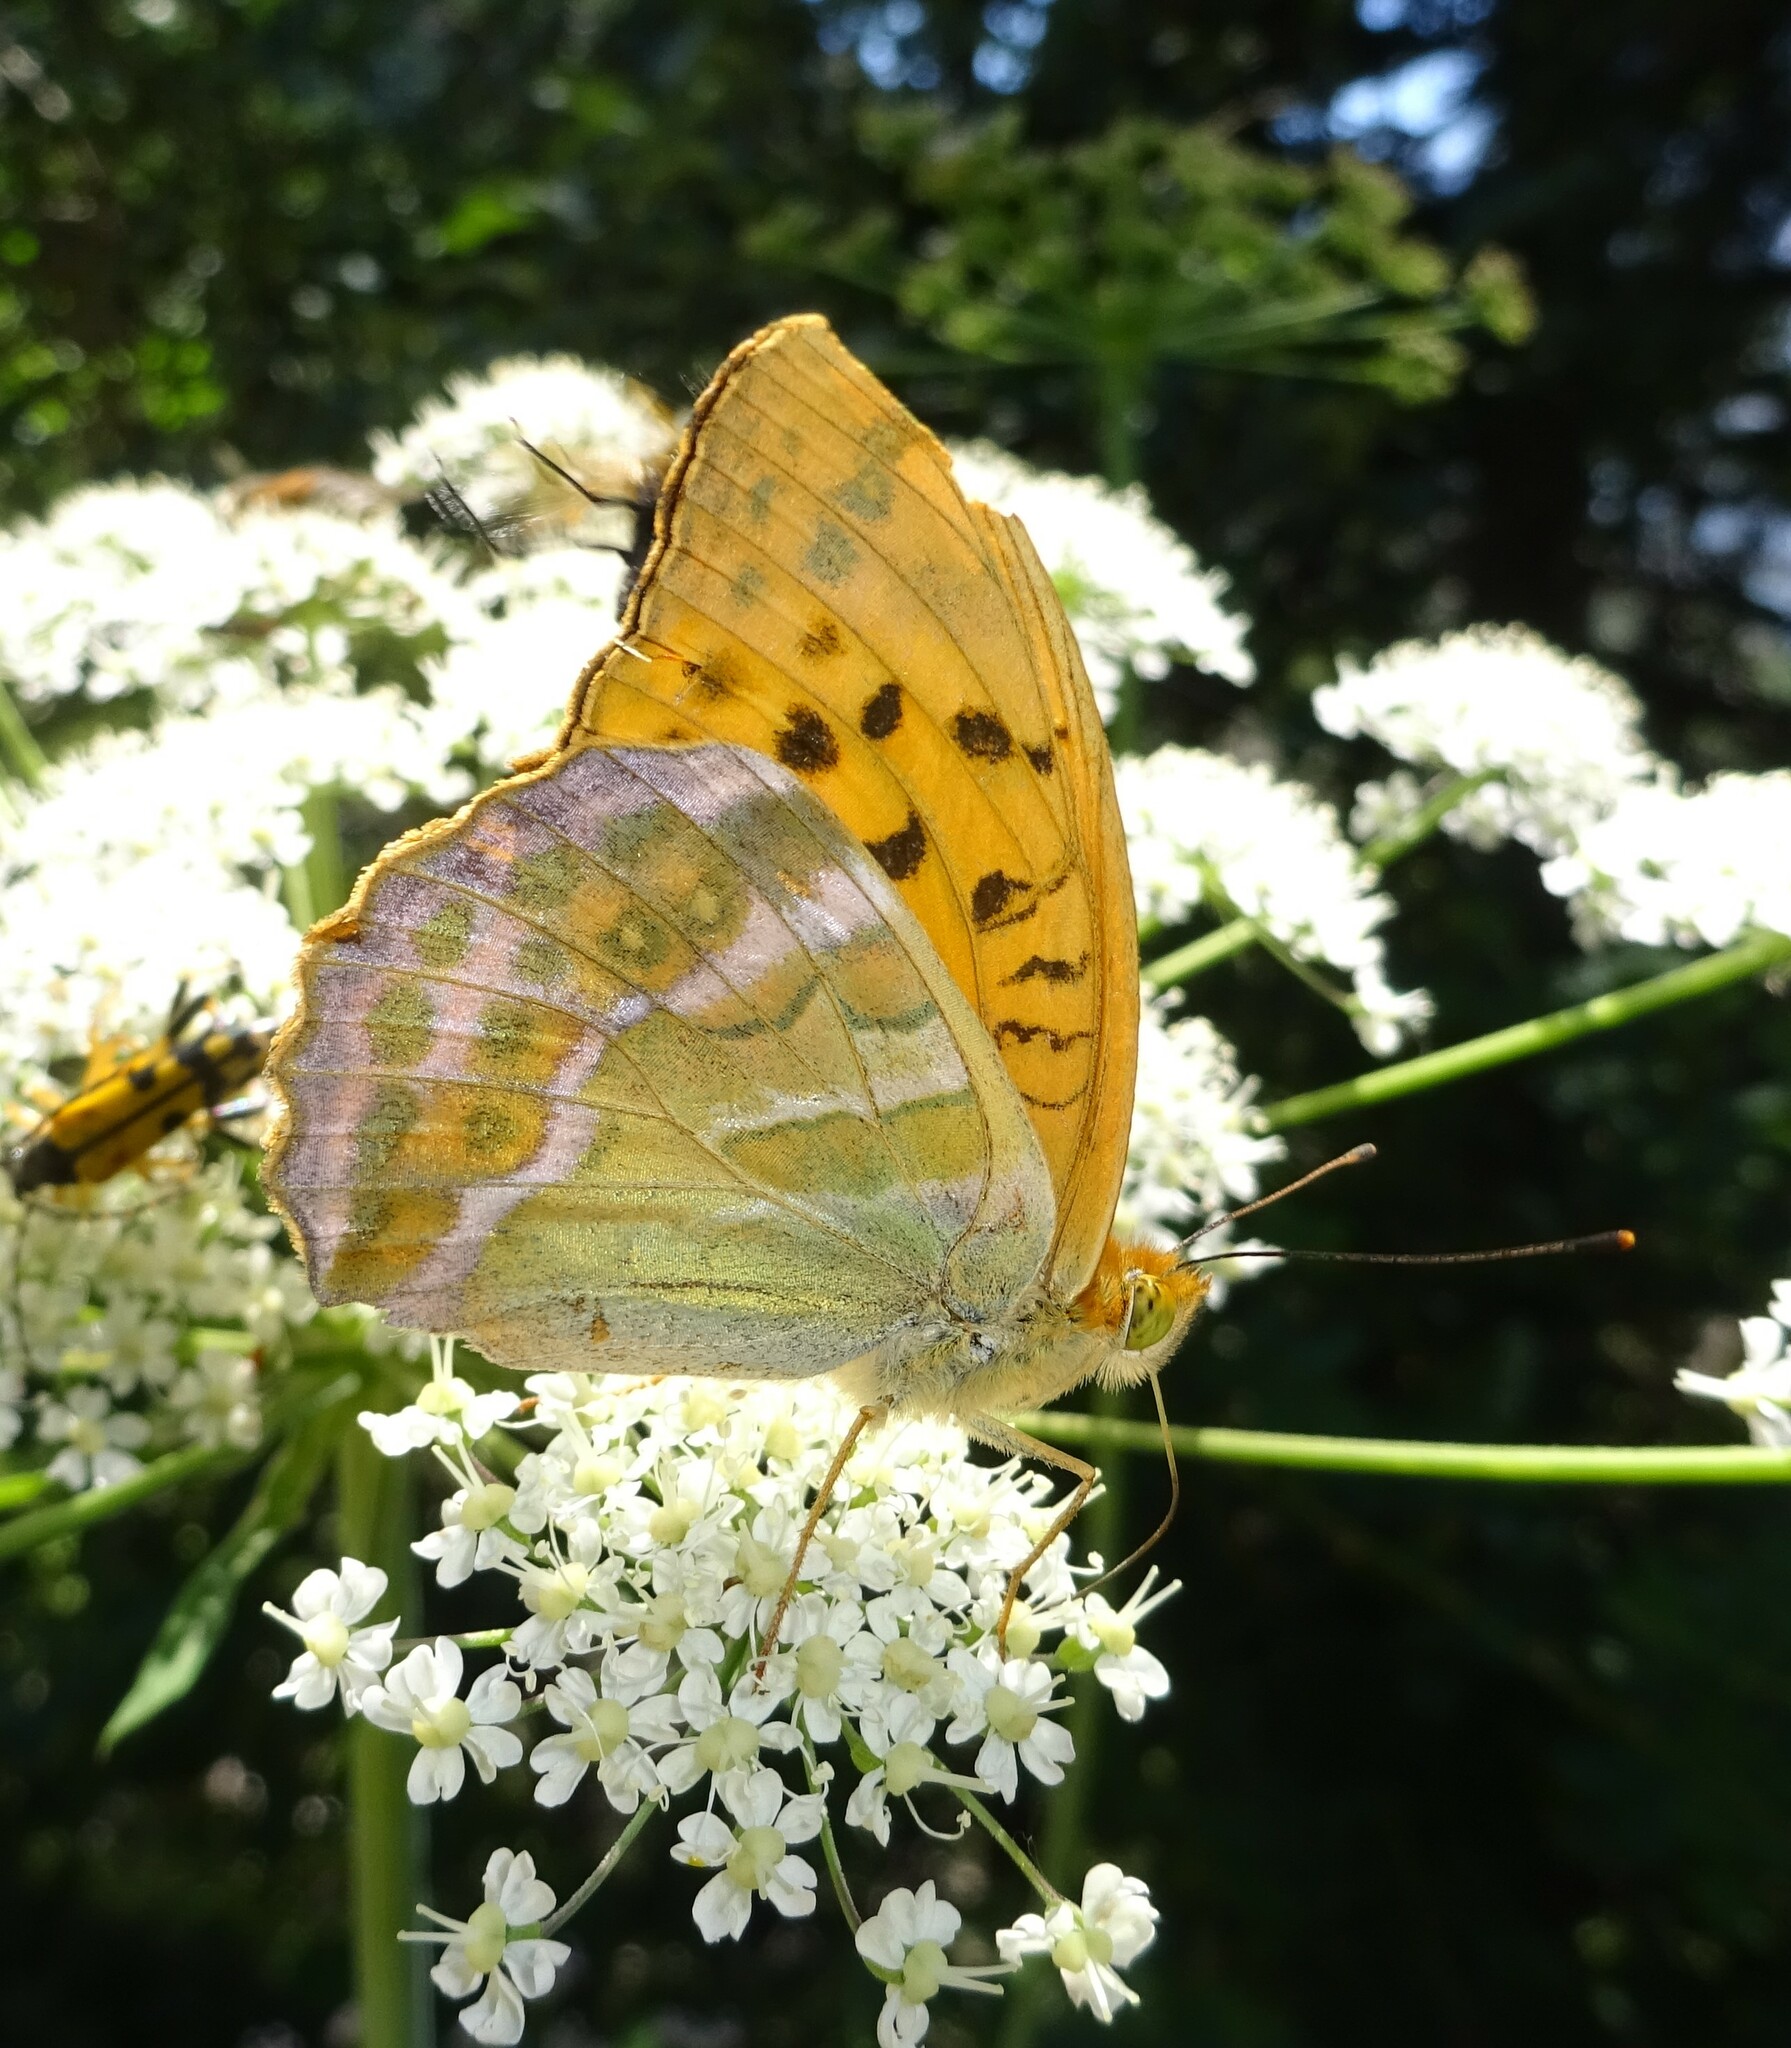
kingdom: Animalia
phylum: Arthropoda
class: Insecta
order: Lepidoptera
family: Nymphalidae
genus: Argynnis
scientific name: Argynnis paphia
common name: Silver-washed fritillary
